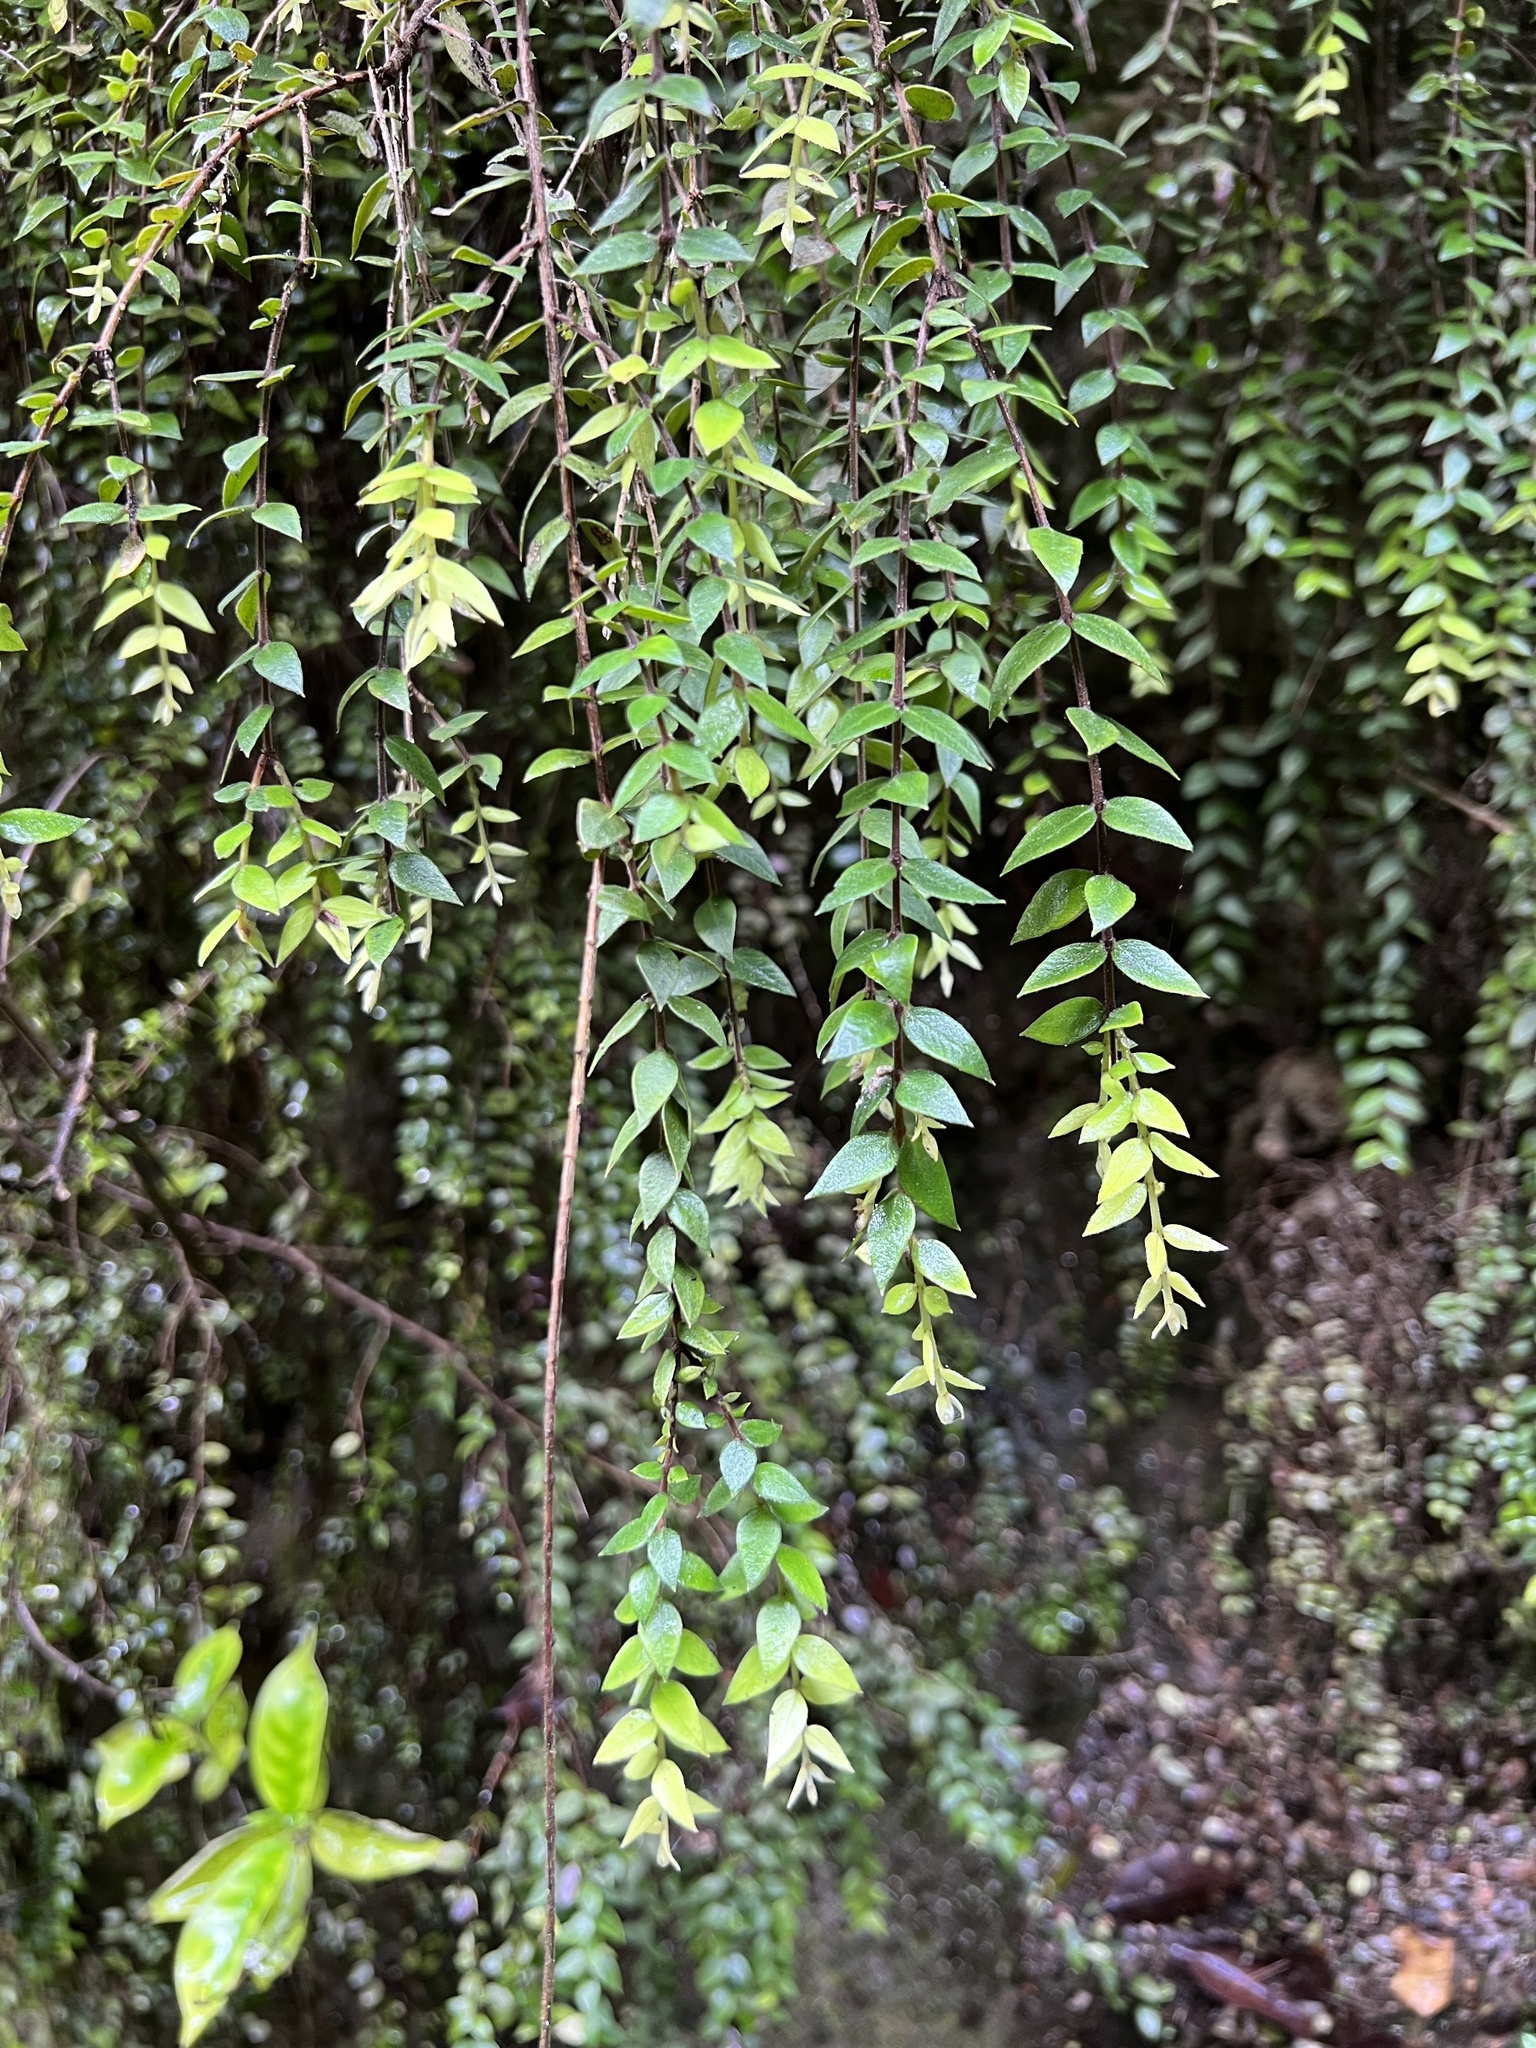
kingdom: Plantae
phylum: Tracheophyta
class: Magnoliopsida
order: Myrtales
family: Myrtaceae
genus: Metrosideros
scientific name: Metrosideros colensoi
